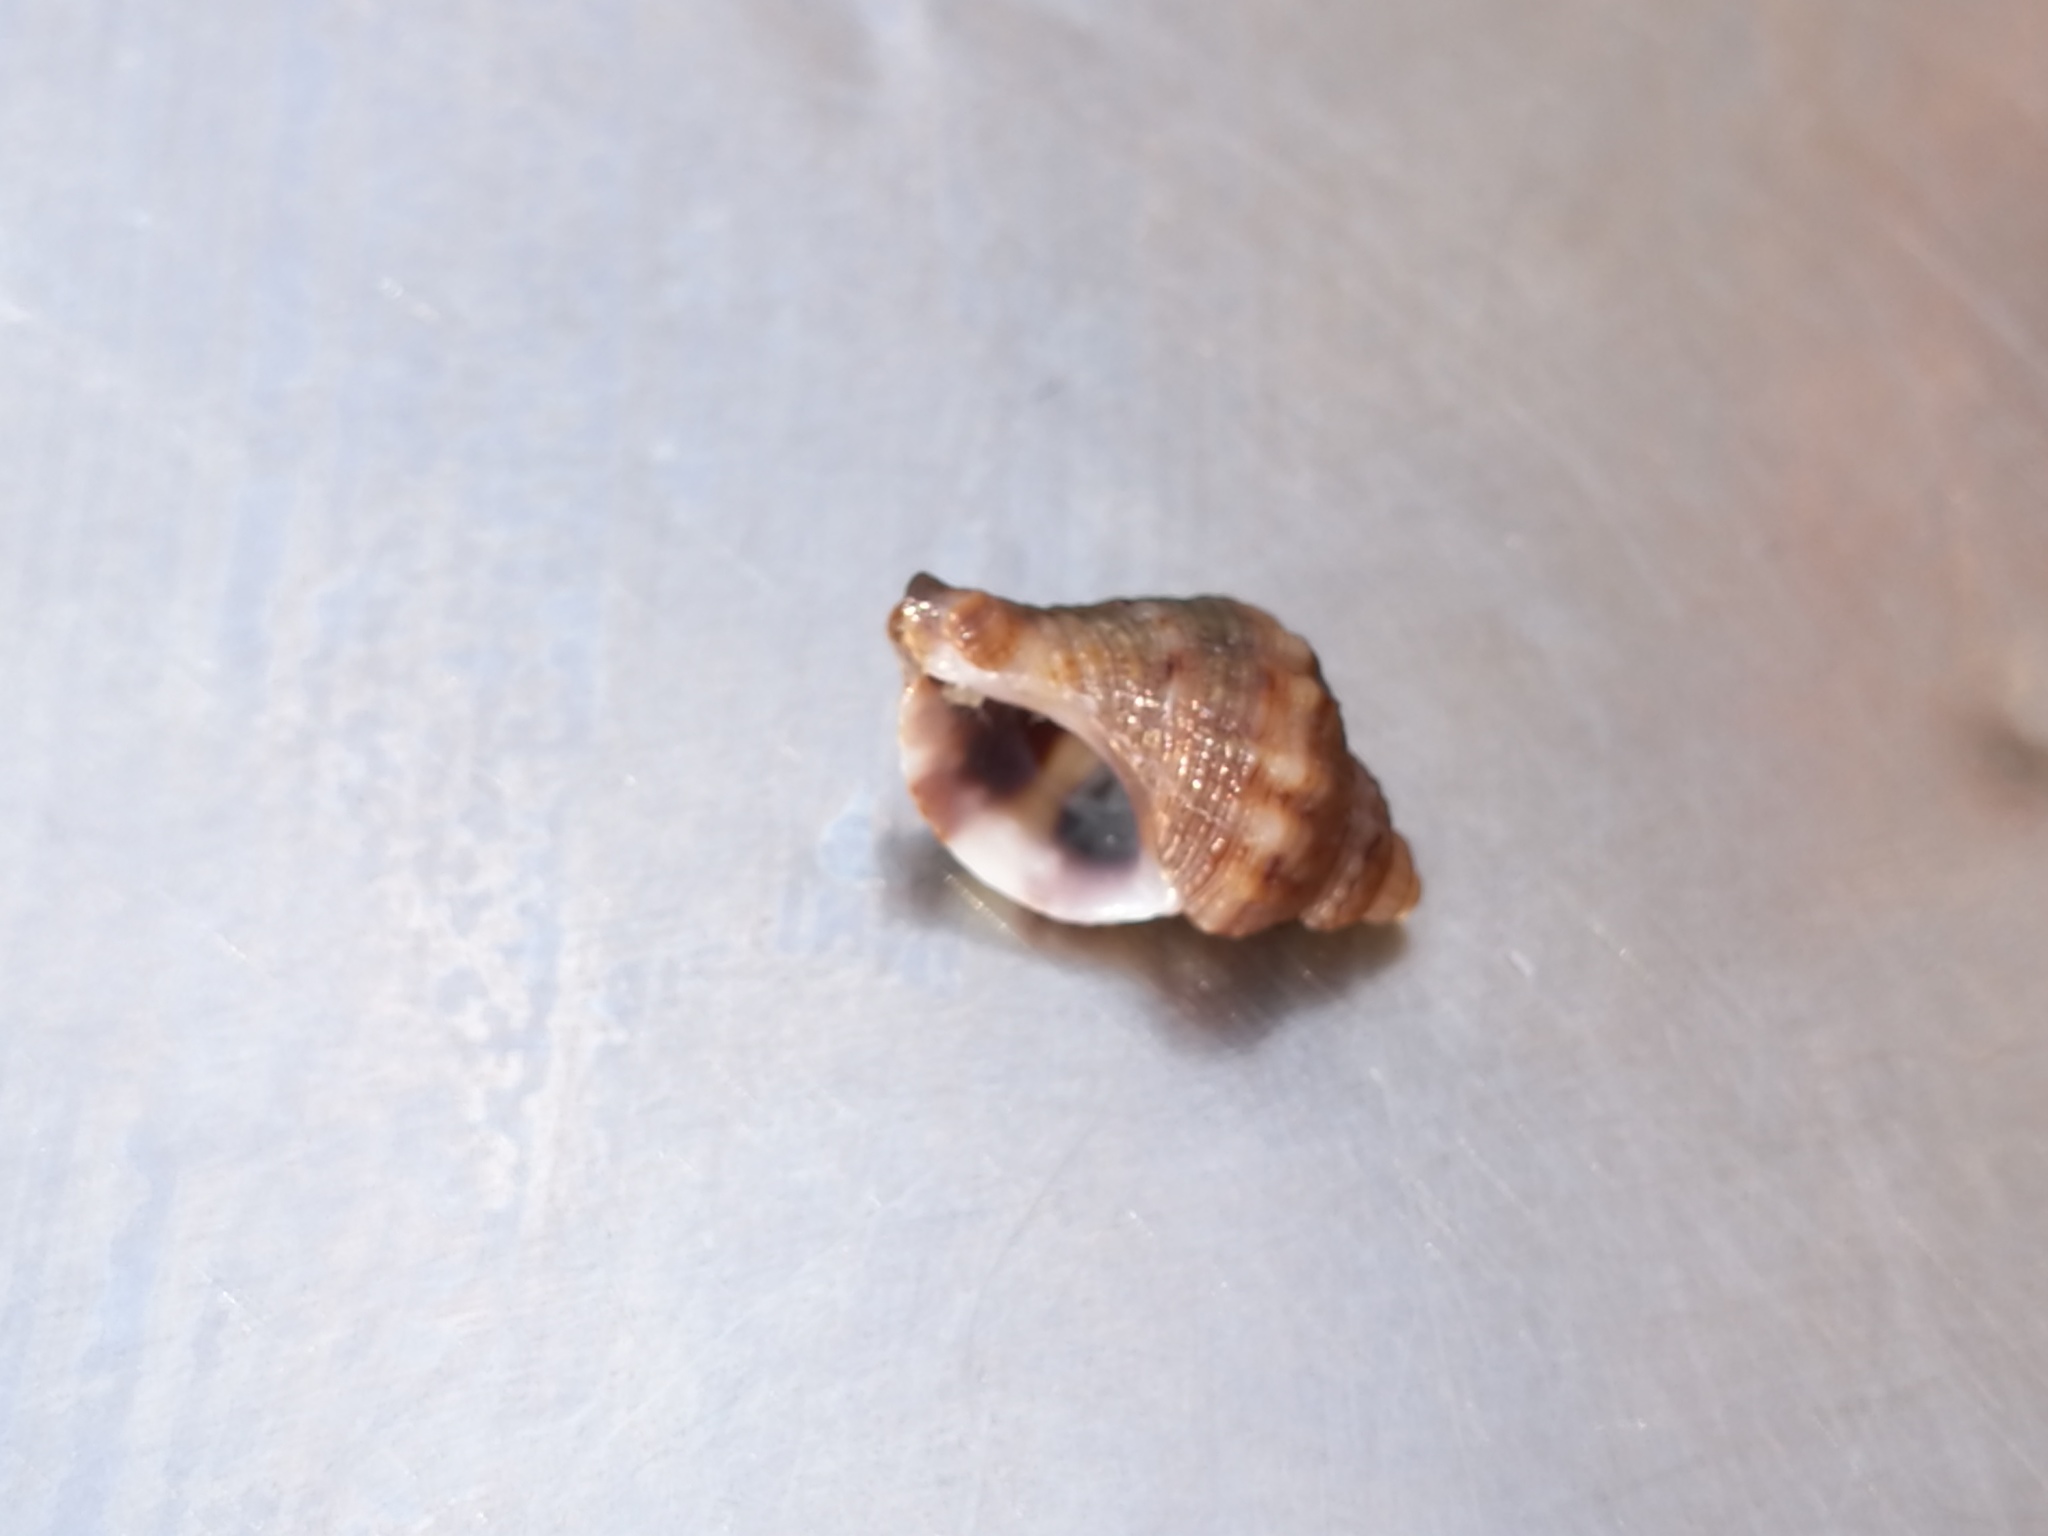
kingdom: Animalia
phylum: Mollusca
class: Gastropoda
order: Neogastropoda
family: Muricidae
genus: Ocenebra
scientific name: Ocenebra edwardsii
